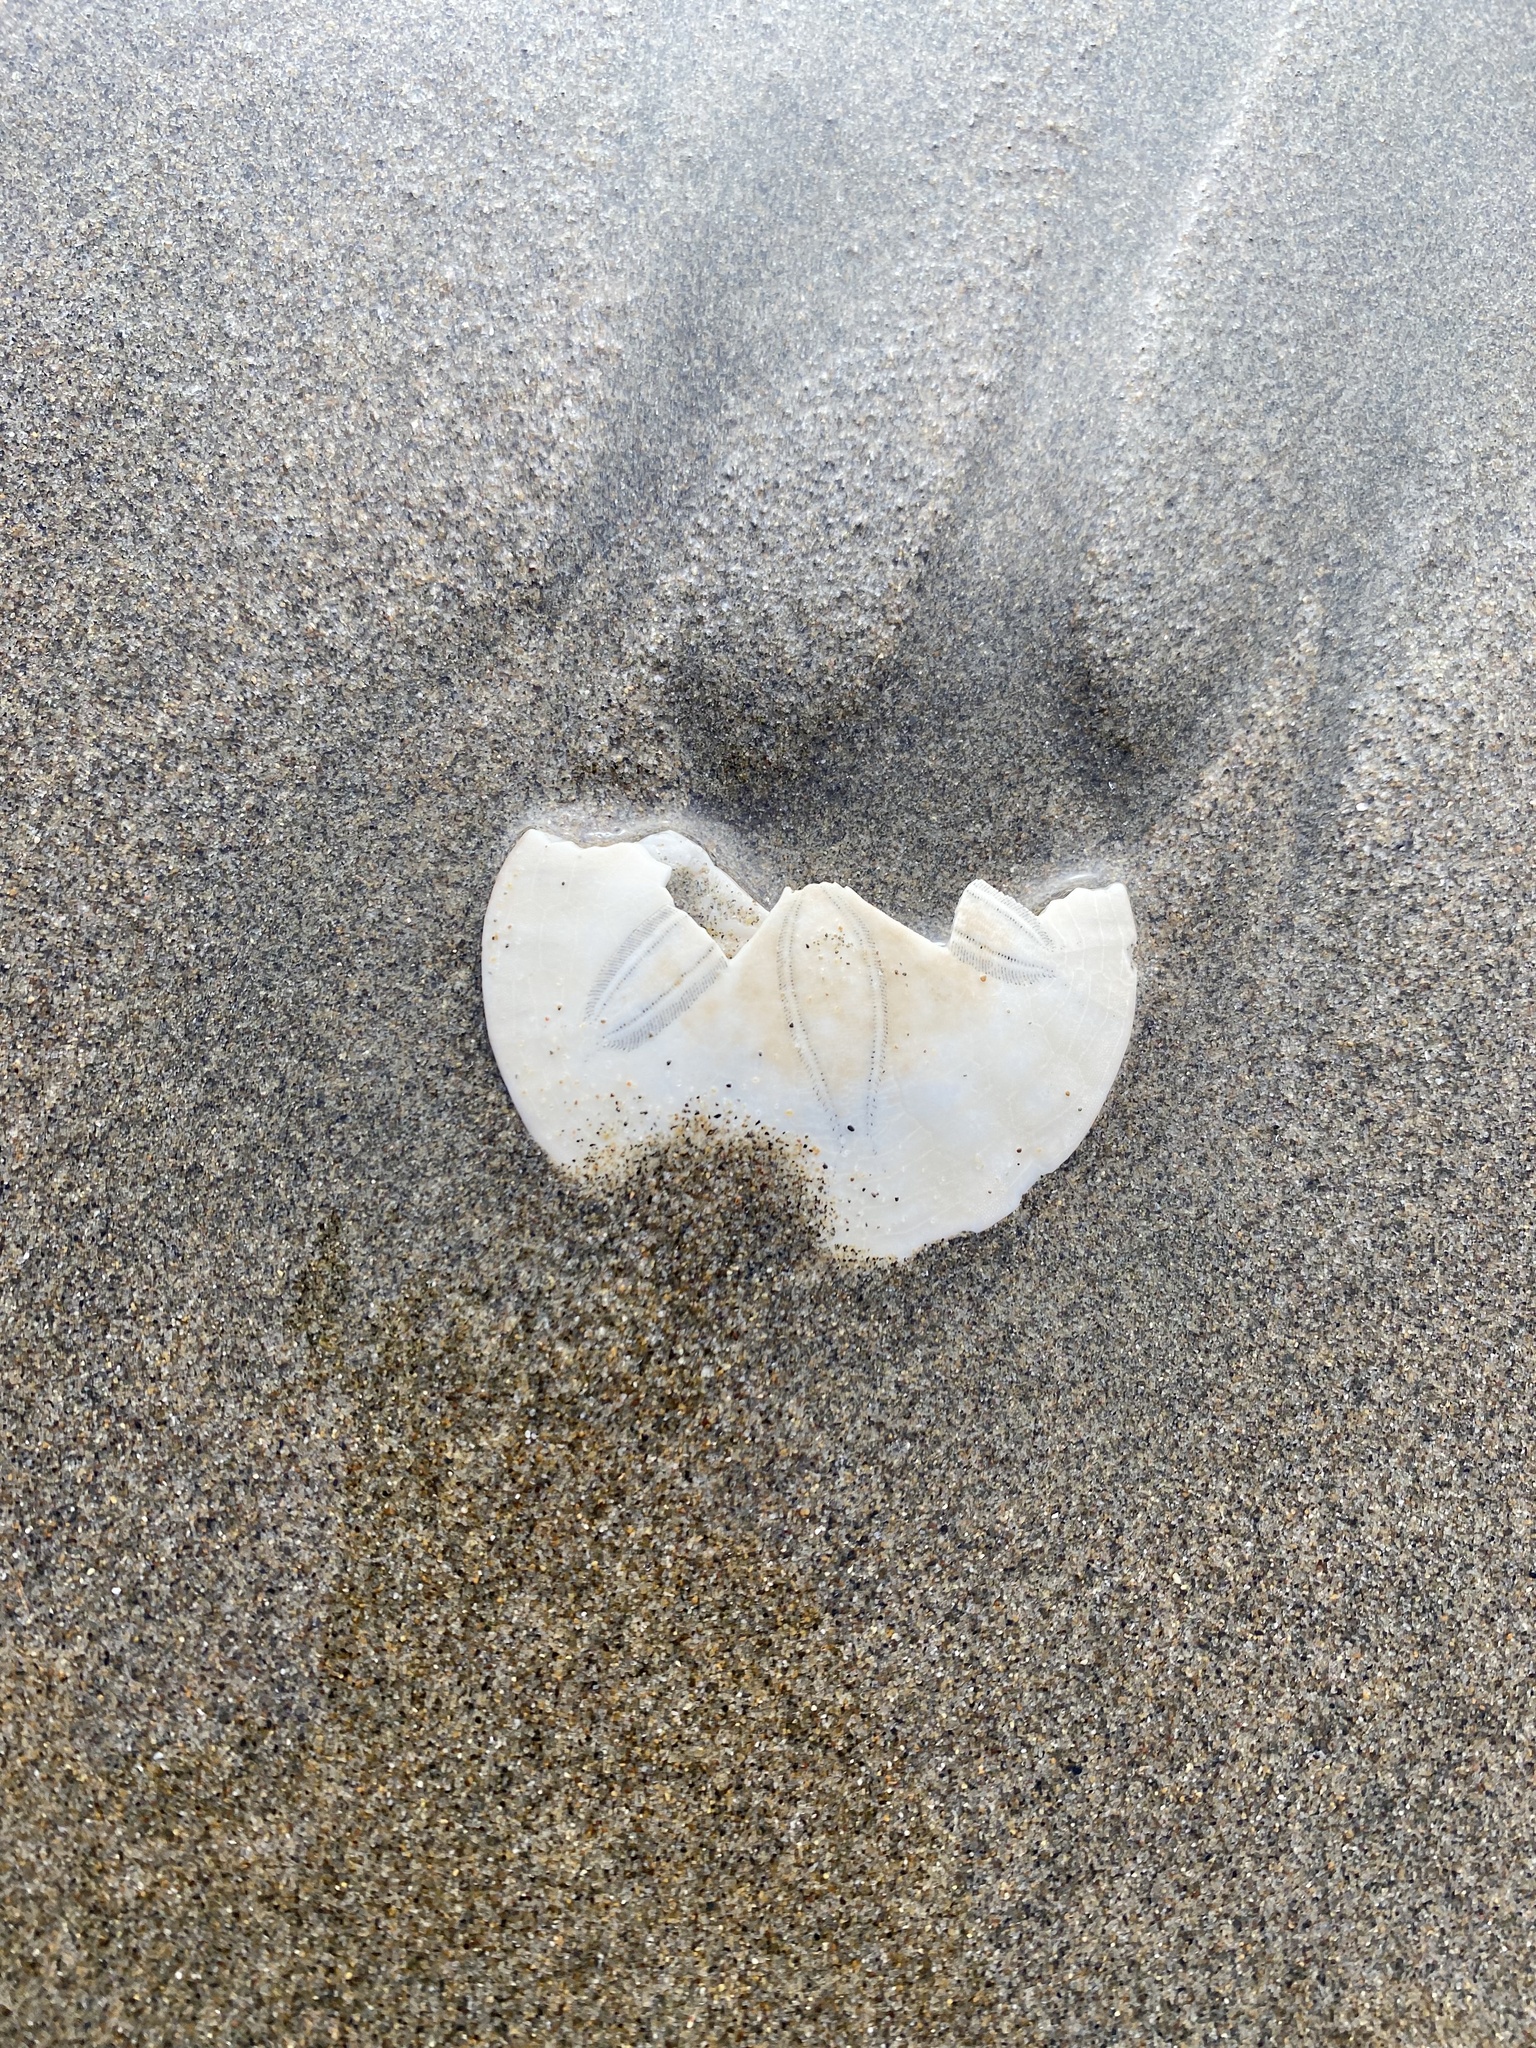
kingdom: Animalia
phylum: Echinodermata
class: Echinoidea
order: Echinolampadacea
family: Dendrasteridae
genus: Dendraster
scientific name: Dendraster excentricus
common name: Eccentric sand dollar sea urchin
